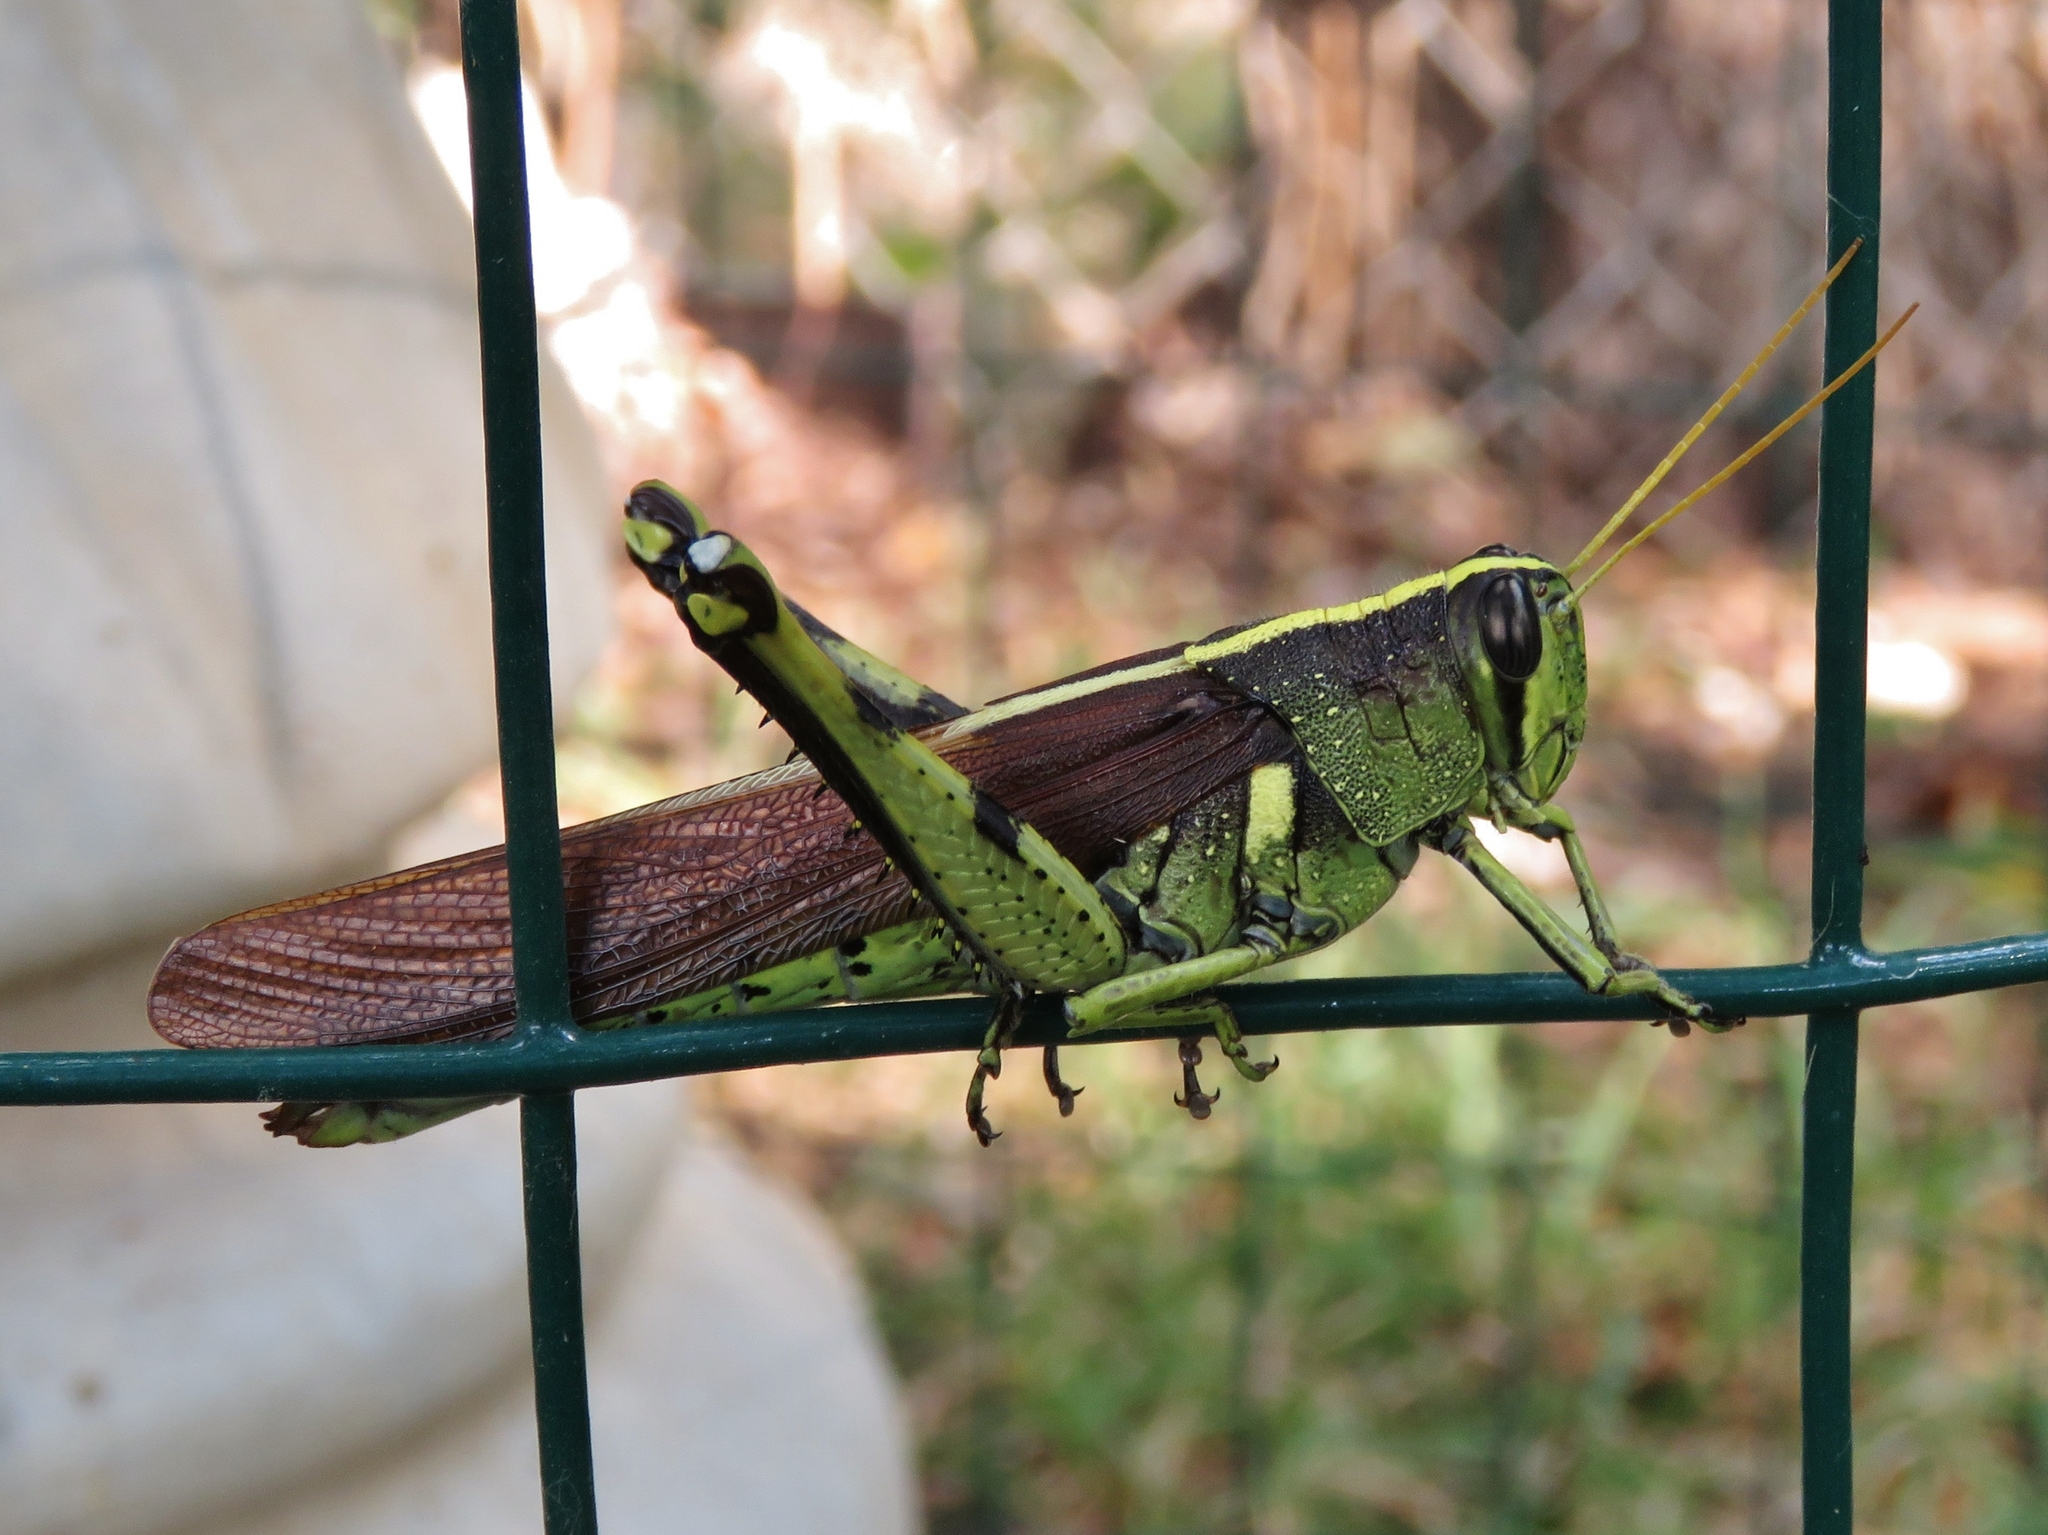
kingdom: Animalia
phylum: Arthropoda
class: Insecta
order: Orthoptera
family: Acrididae
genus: Schistocerca
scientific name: Schistocerca obscura
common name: Obscure bird grasshopper
